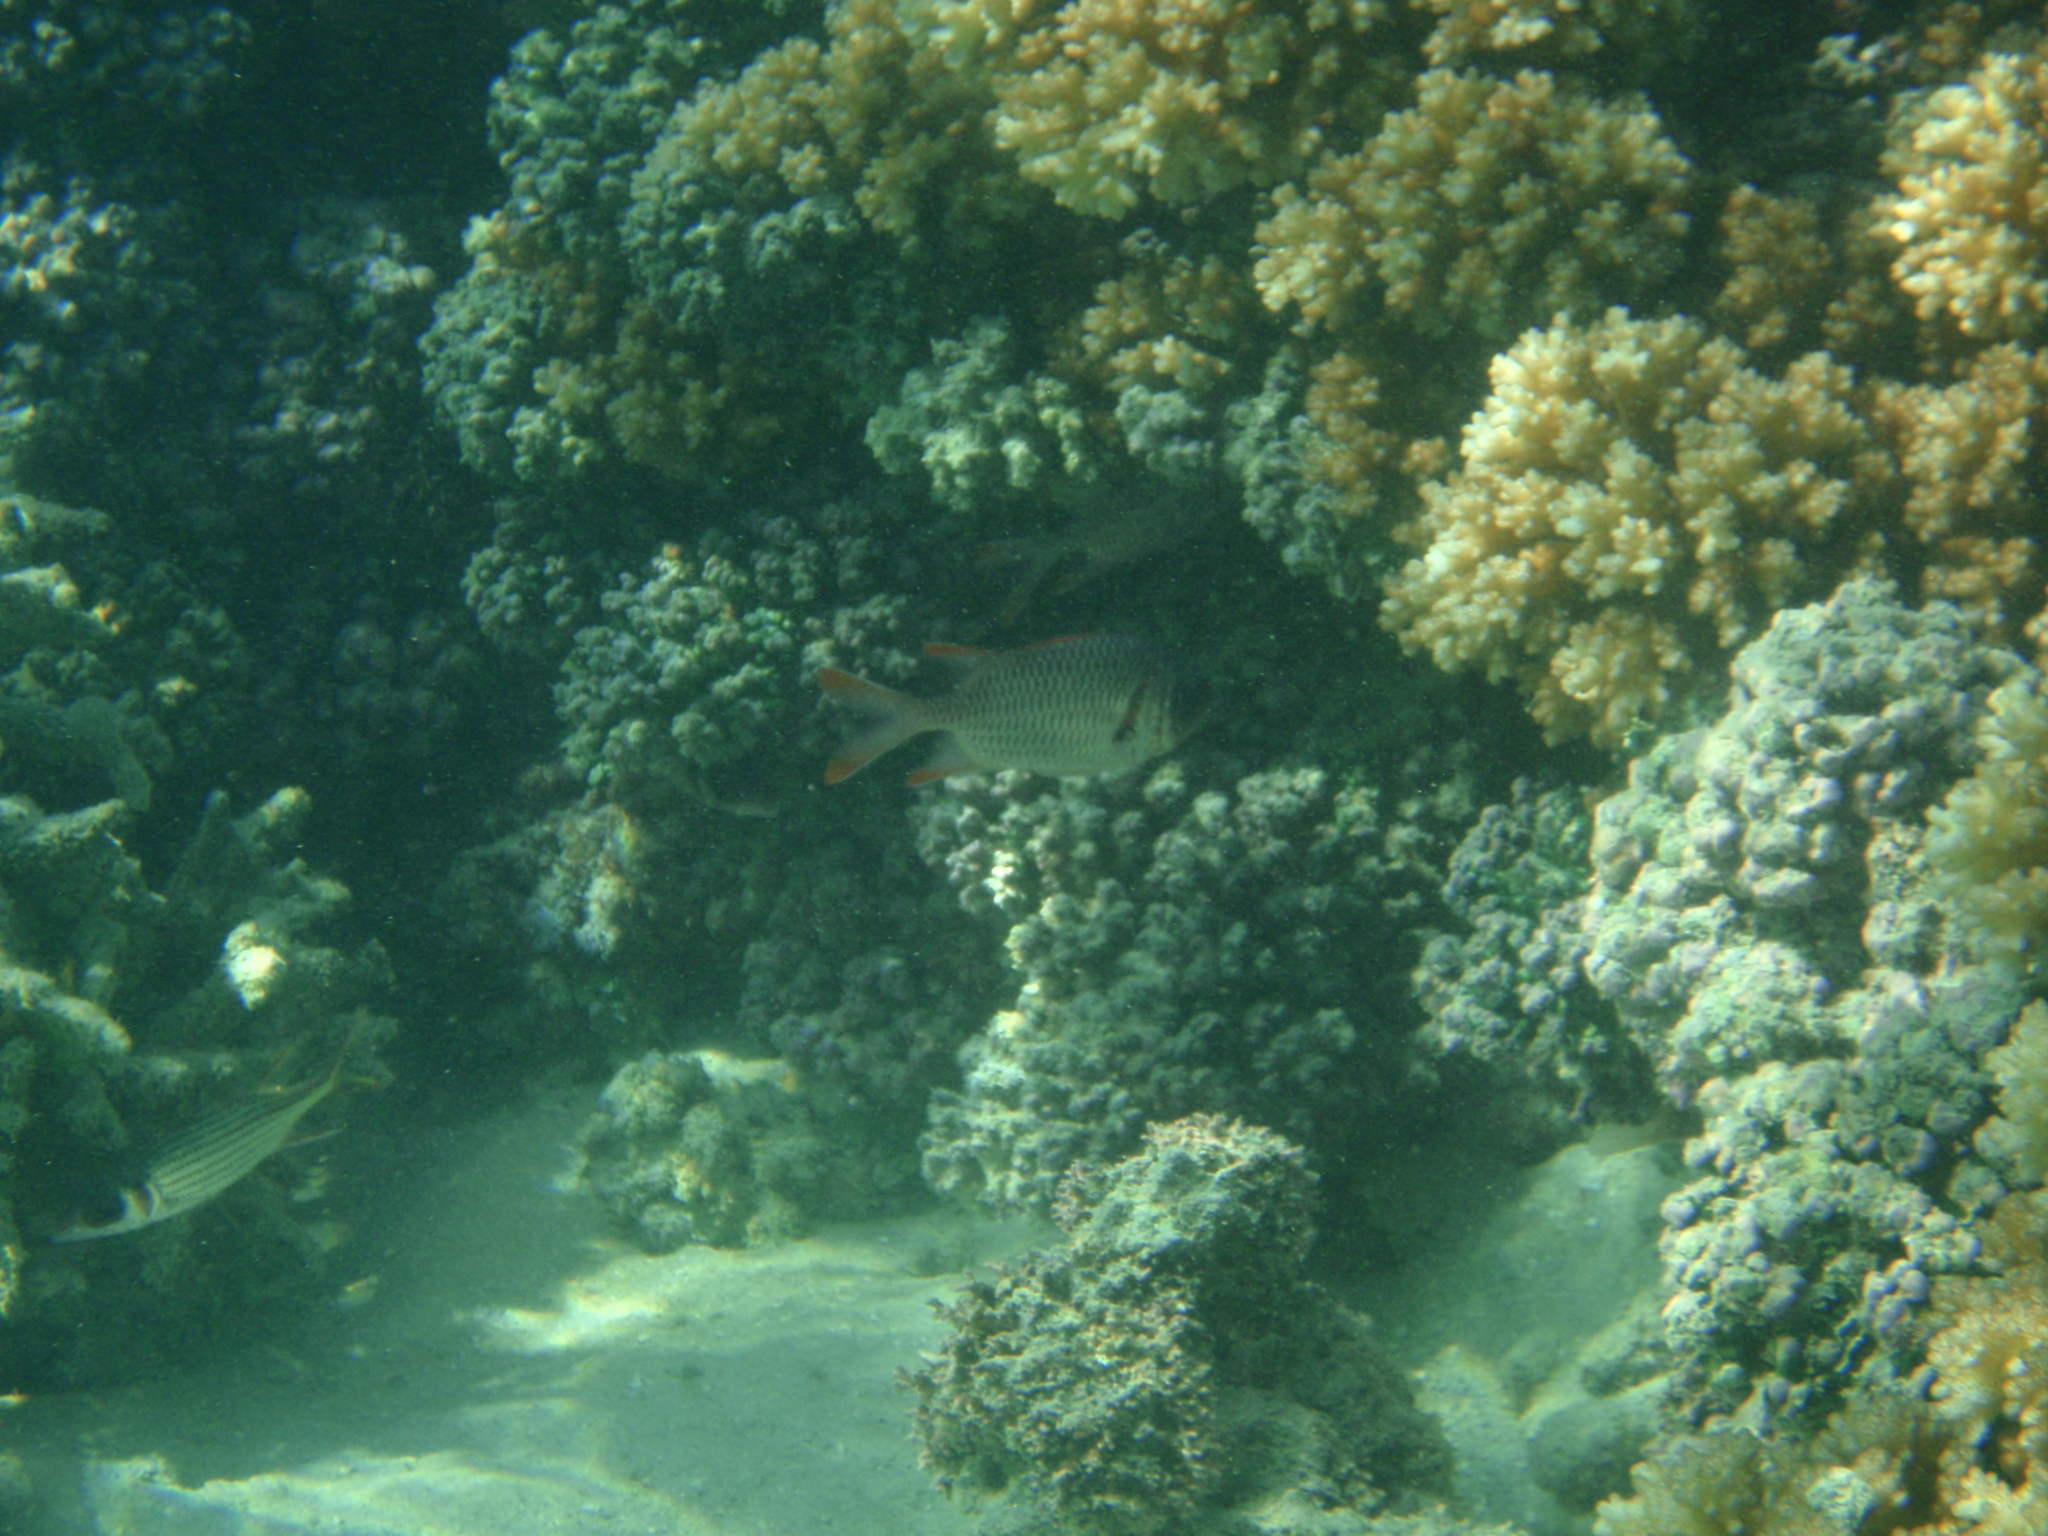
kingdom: Animalia
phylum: Chordata
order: Beryciformes
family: Holocentridae
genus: Myripristis
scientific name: Myripristis violacea
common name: Lattice soldierfish
